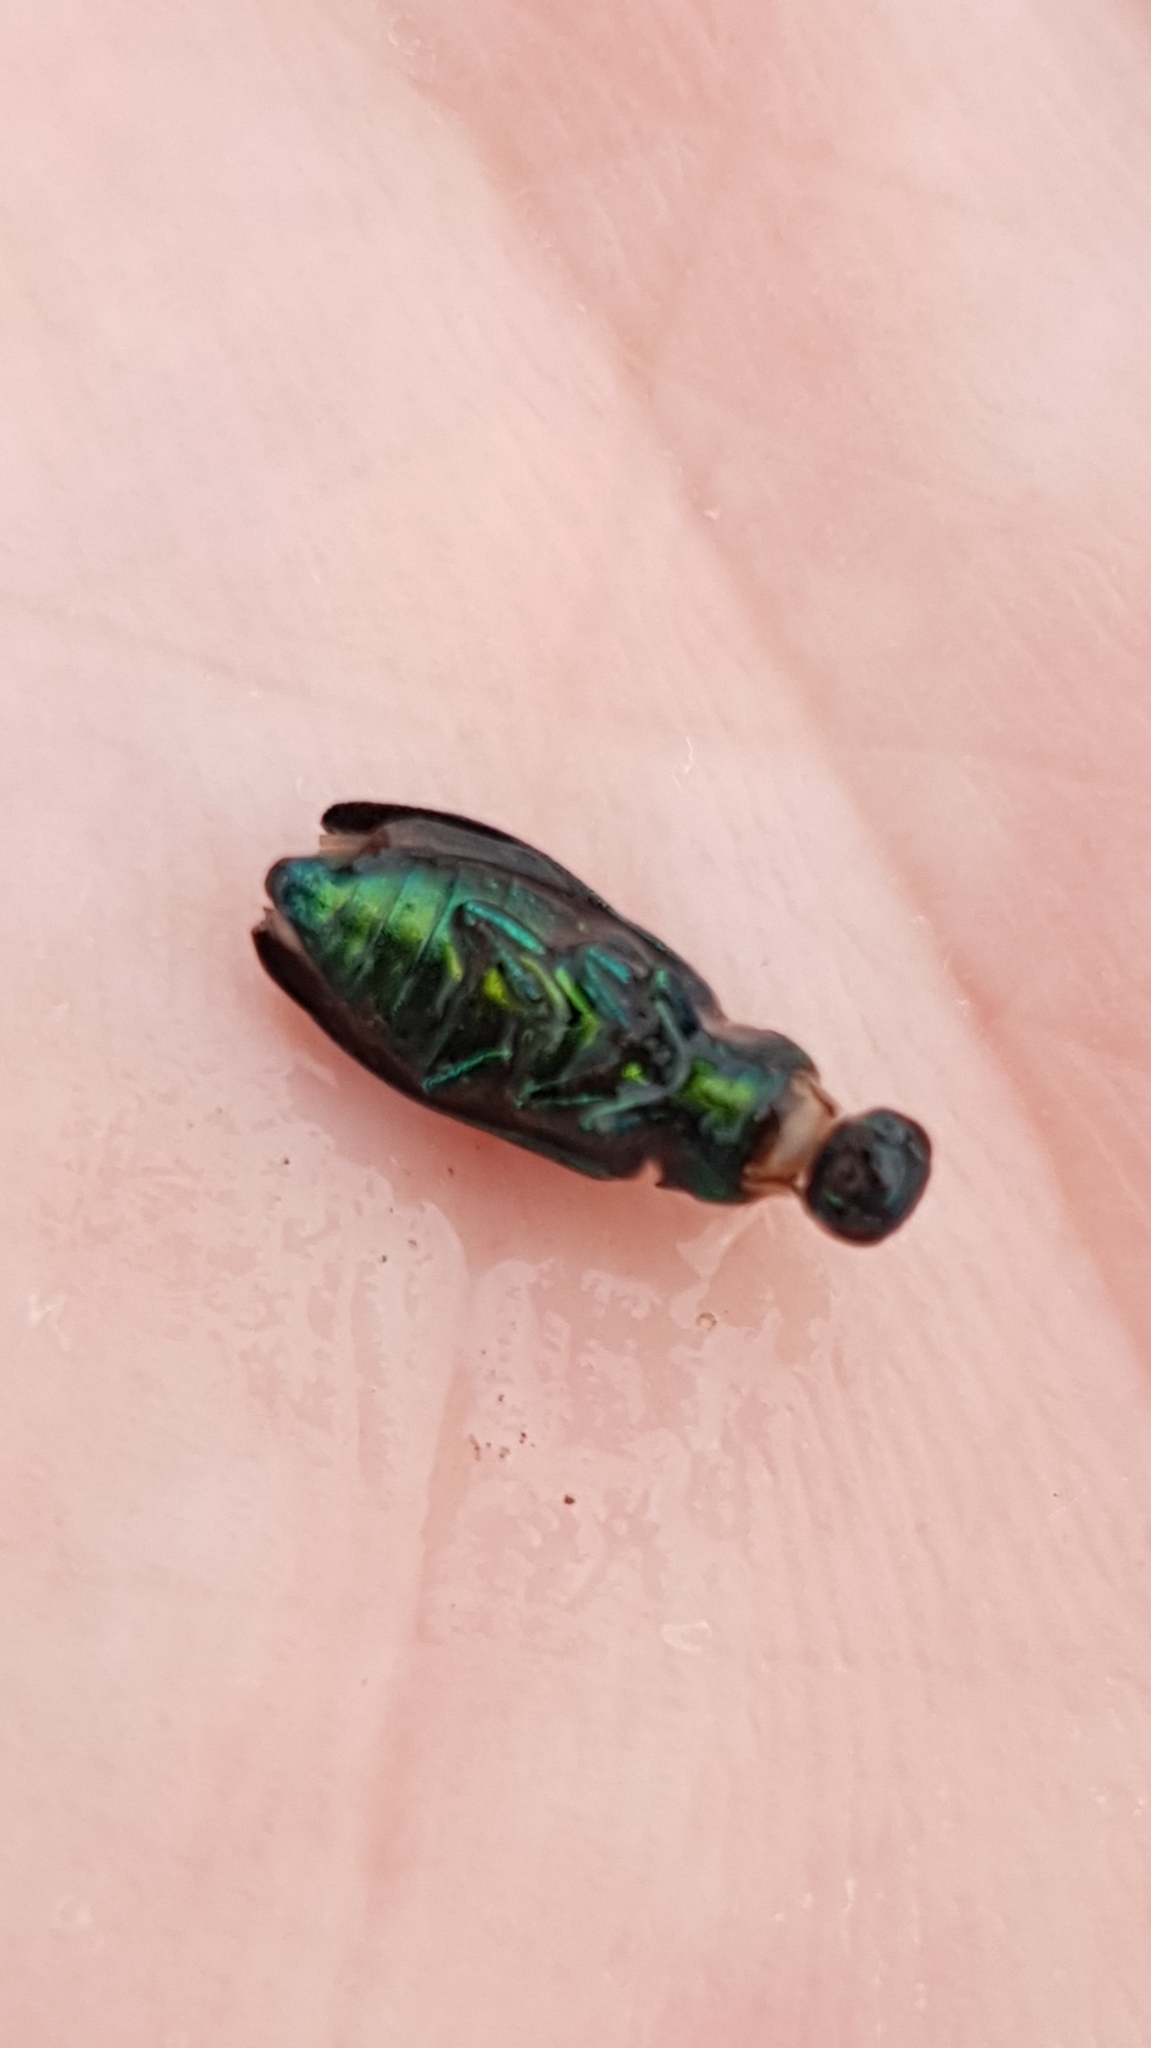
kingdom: Animalia
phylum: Arthropoda
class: Insecta
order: Coleoptera
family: Buprestidae
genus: Lamprodila
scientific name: Lamprodila festiva
